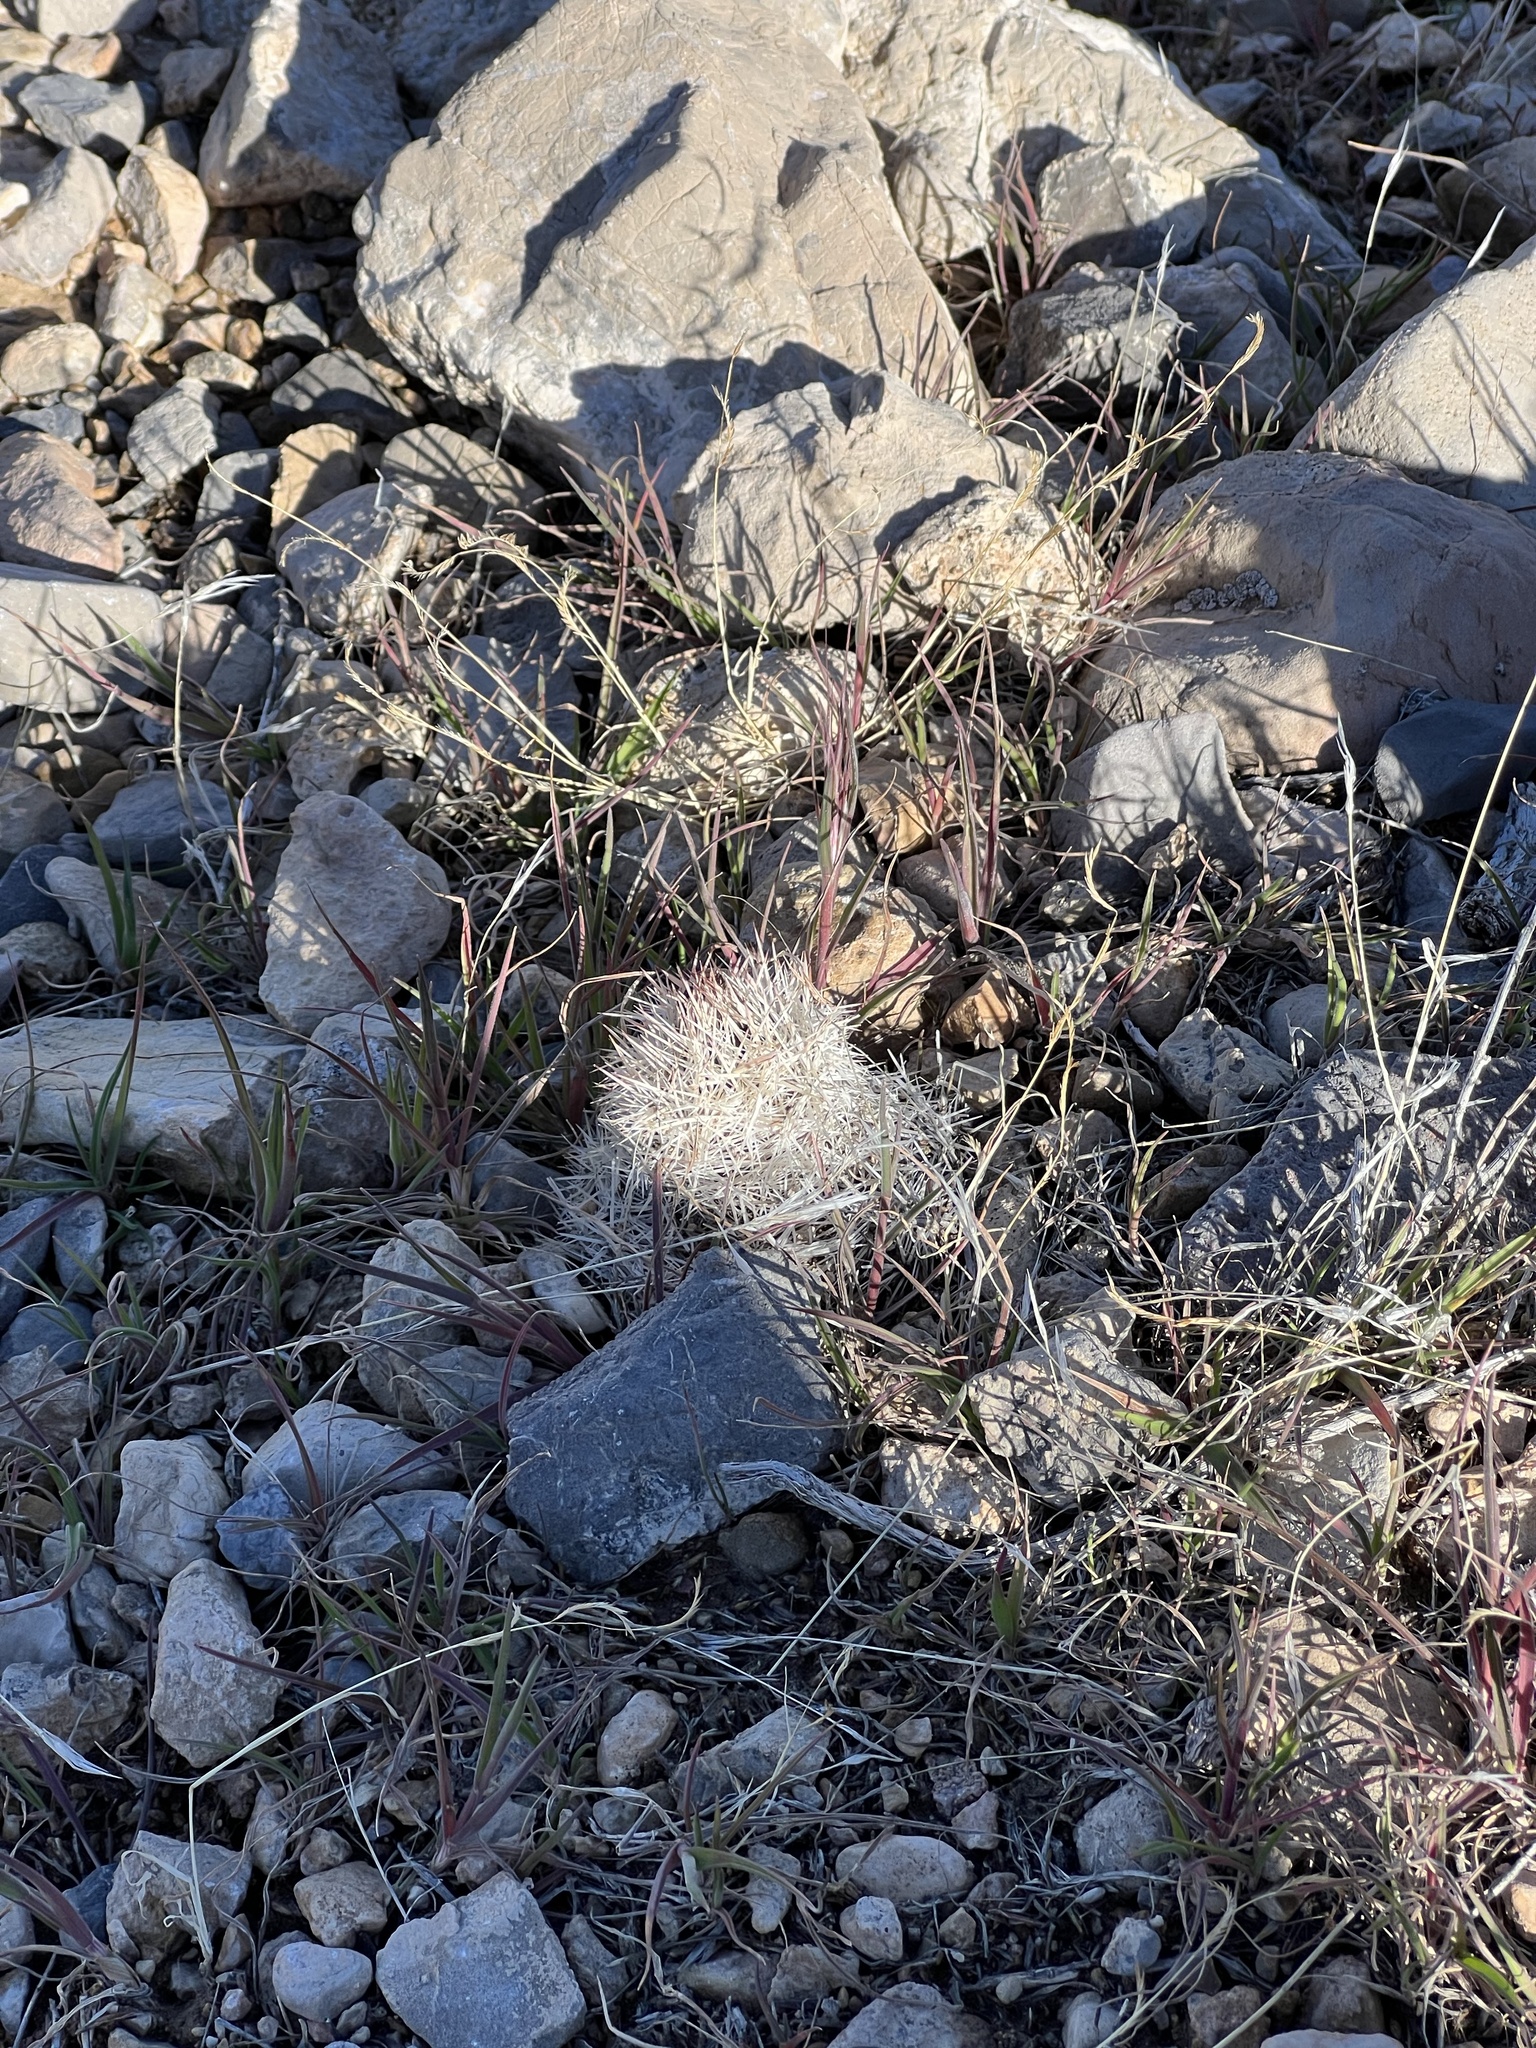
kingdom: Plantae
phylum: Tracheophyta
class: Magnoliopsida
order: Caryophyllales
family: Cactaceae
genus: Pelecyphora
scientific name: Pelecyphora dasyacantha
